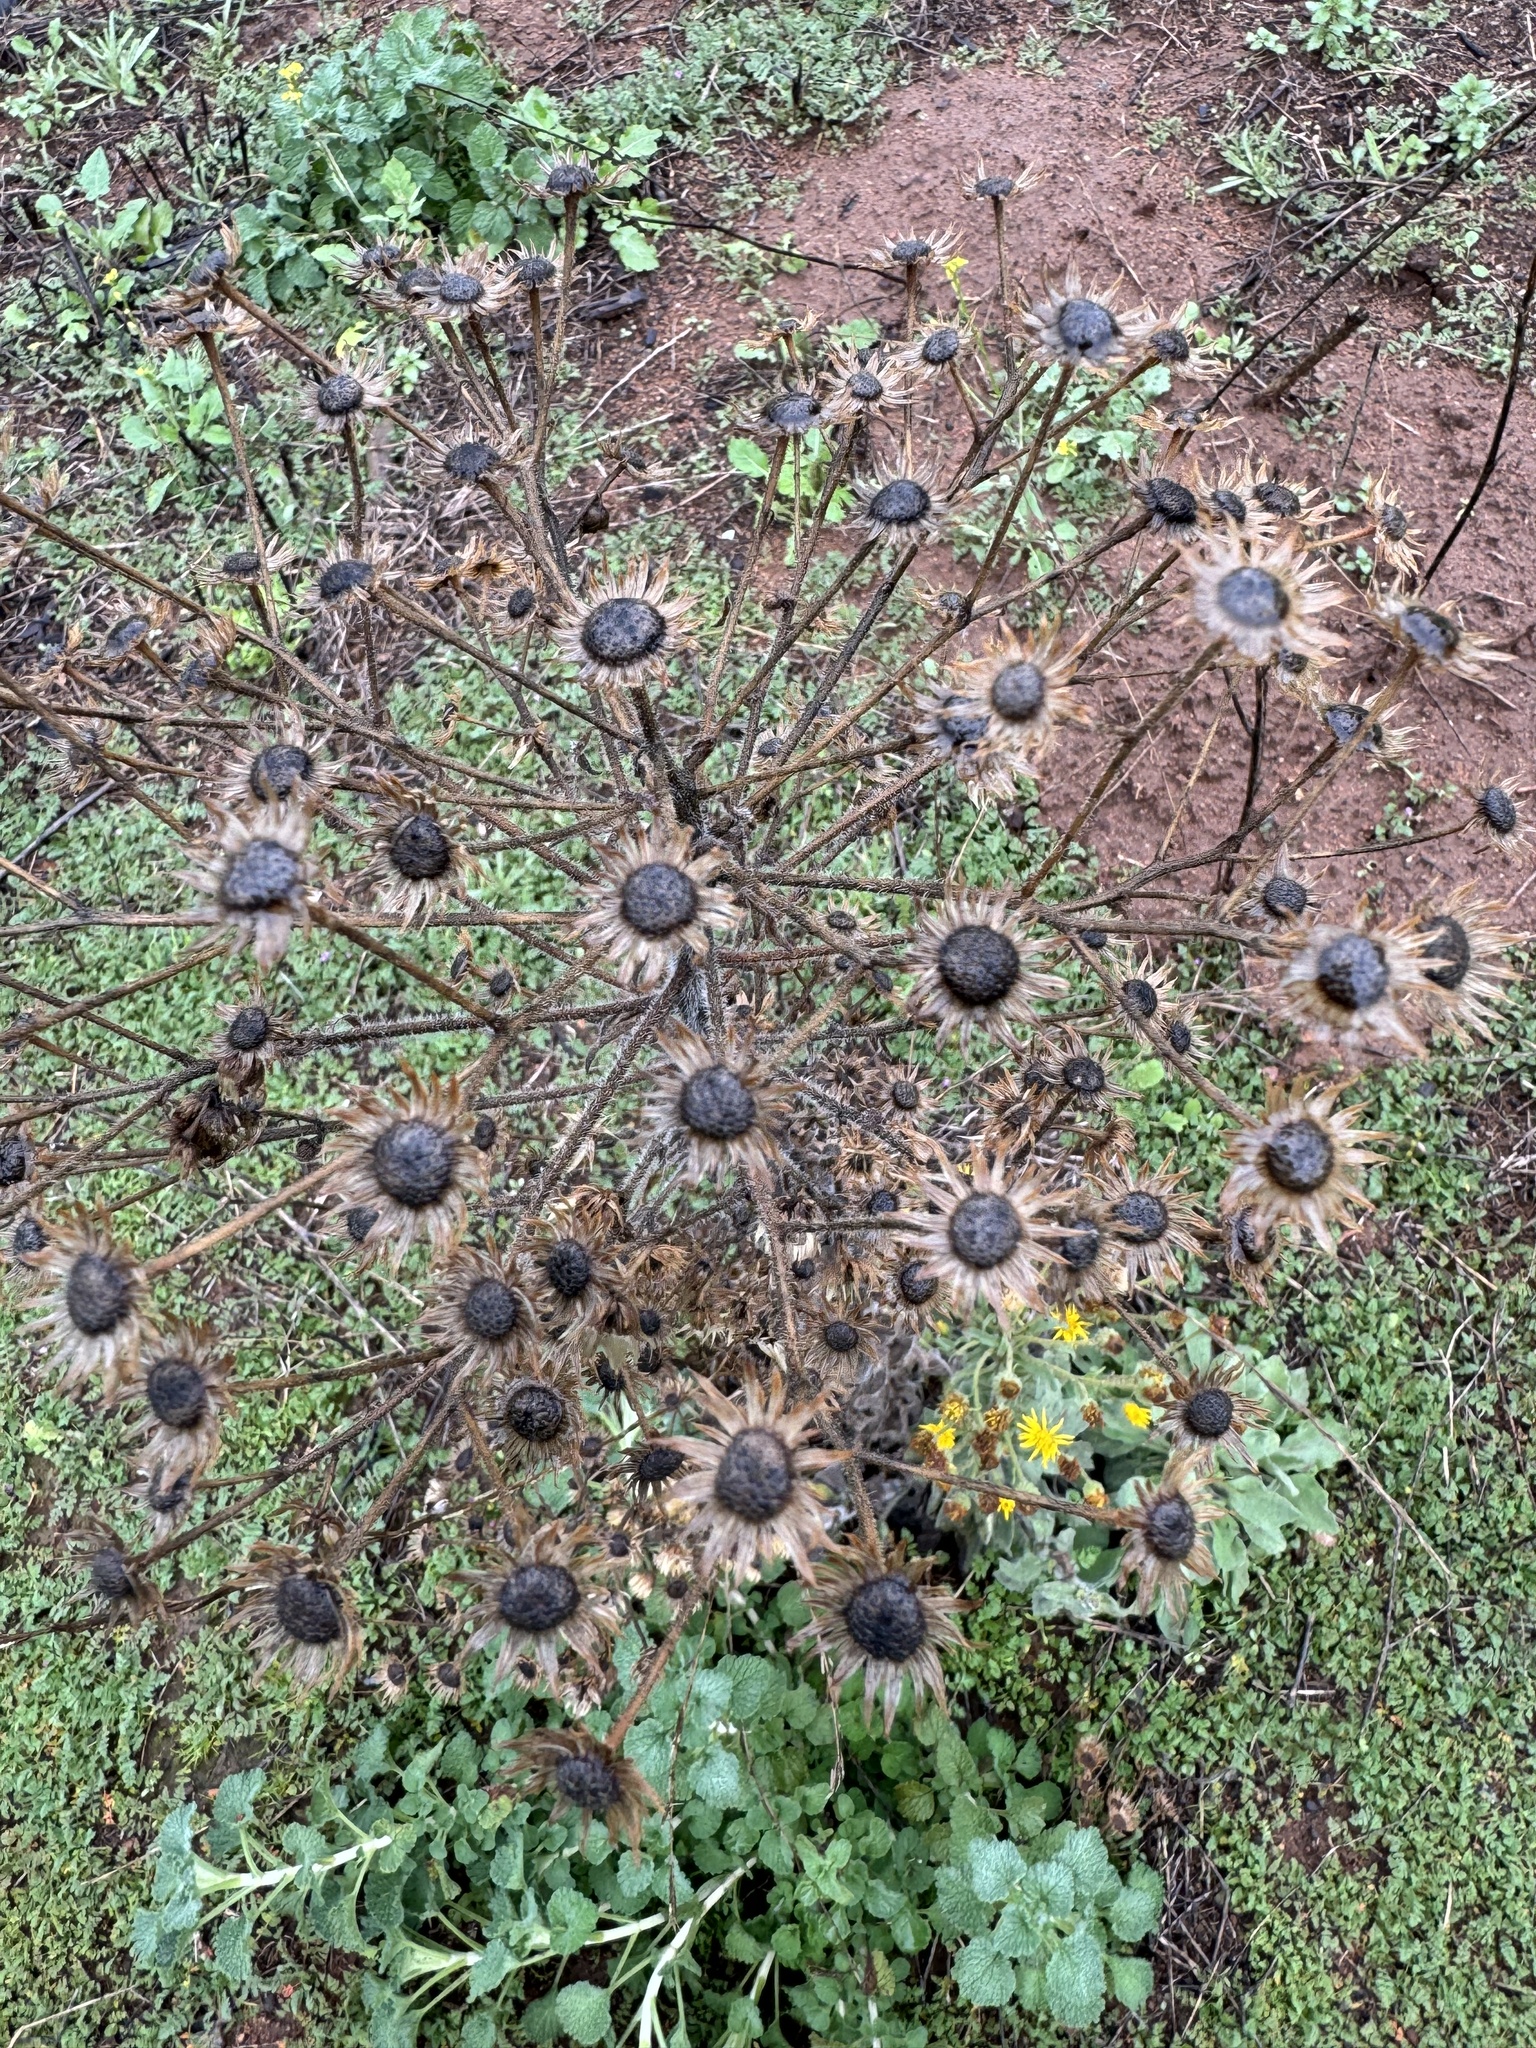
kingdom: Plantae
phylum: Tracheophyta
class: Magnoliopsida
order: Asterales
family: Asteraceae
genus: Heterotheca
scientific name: Heterotheca grandiflora
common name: Telegraphweed
